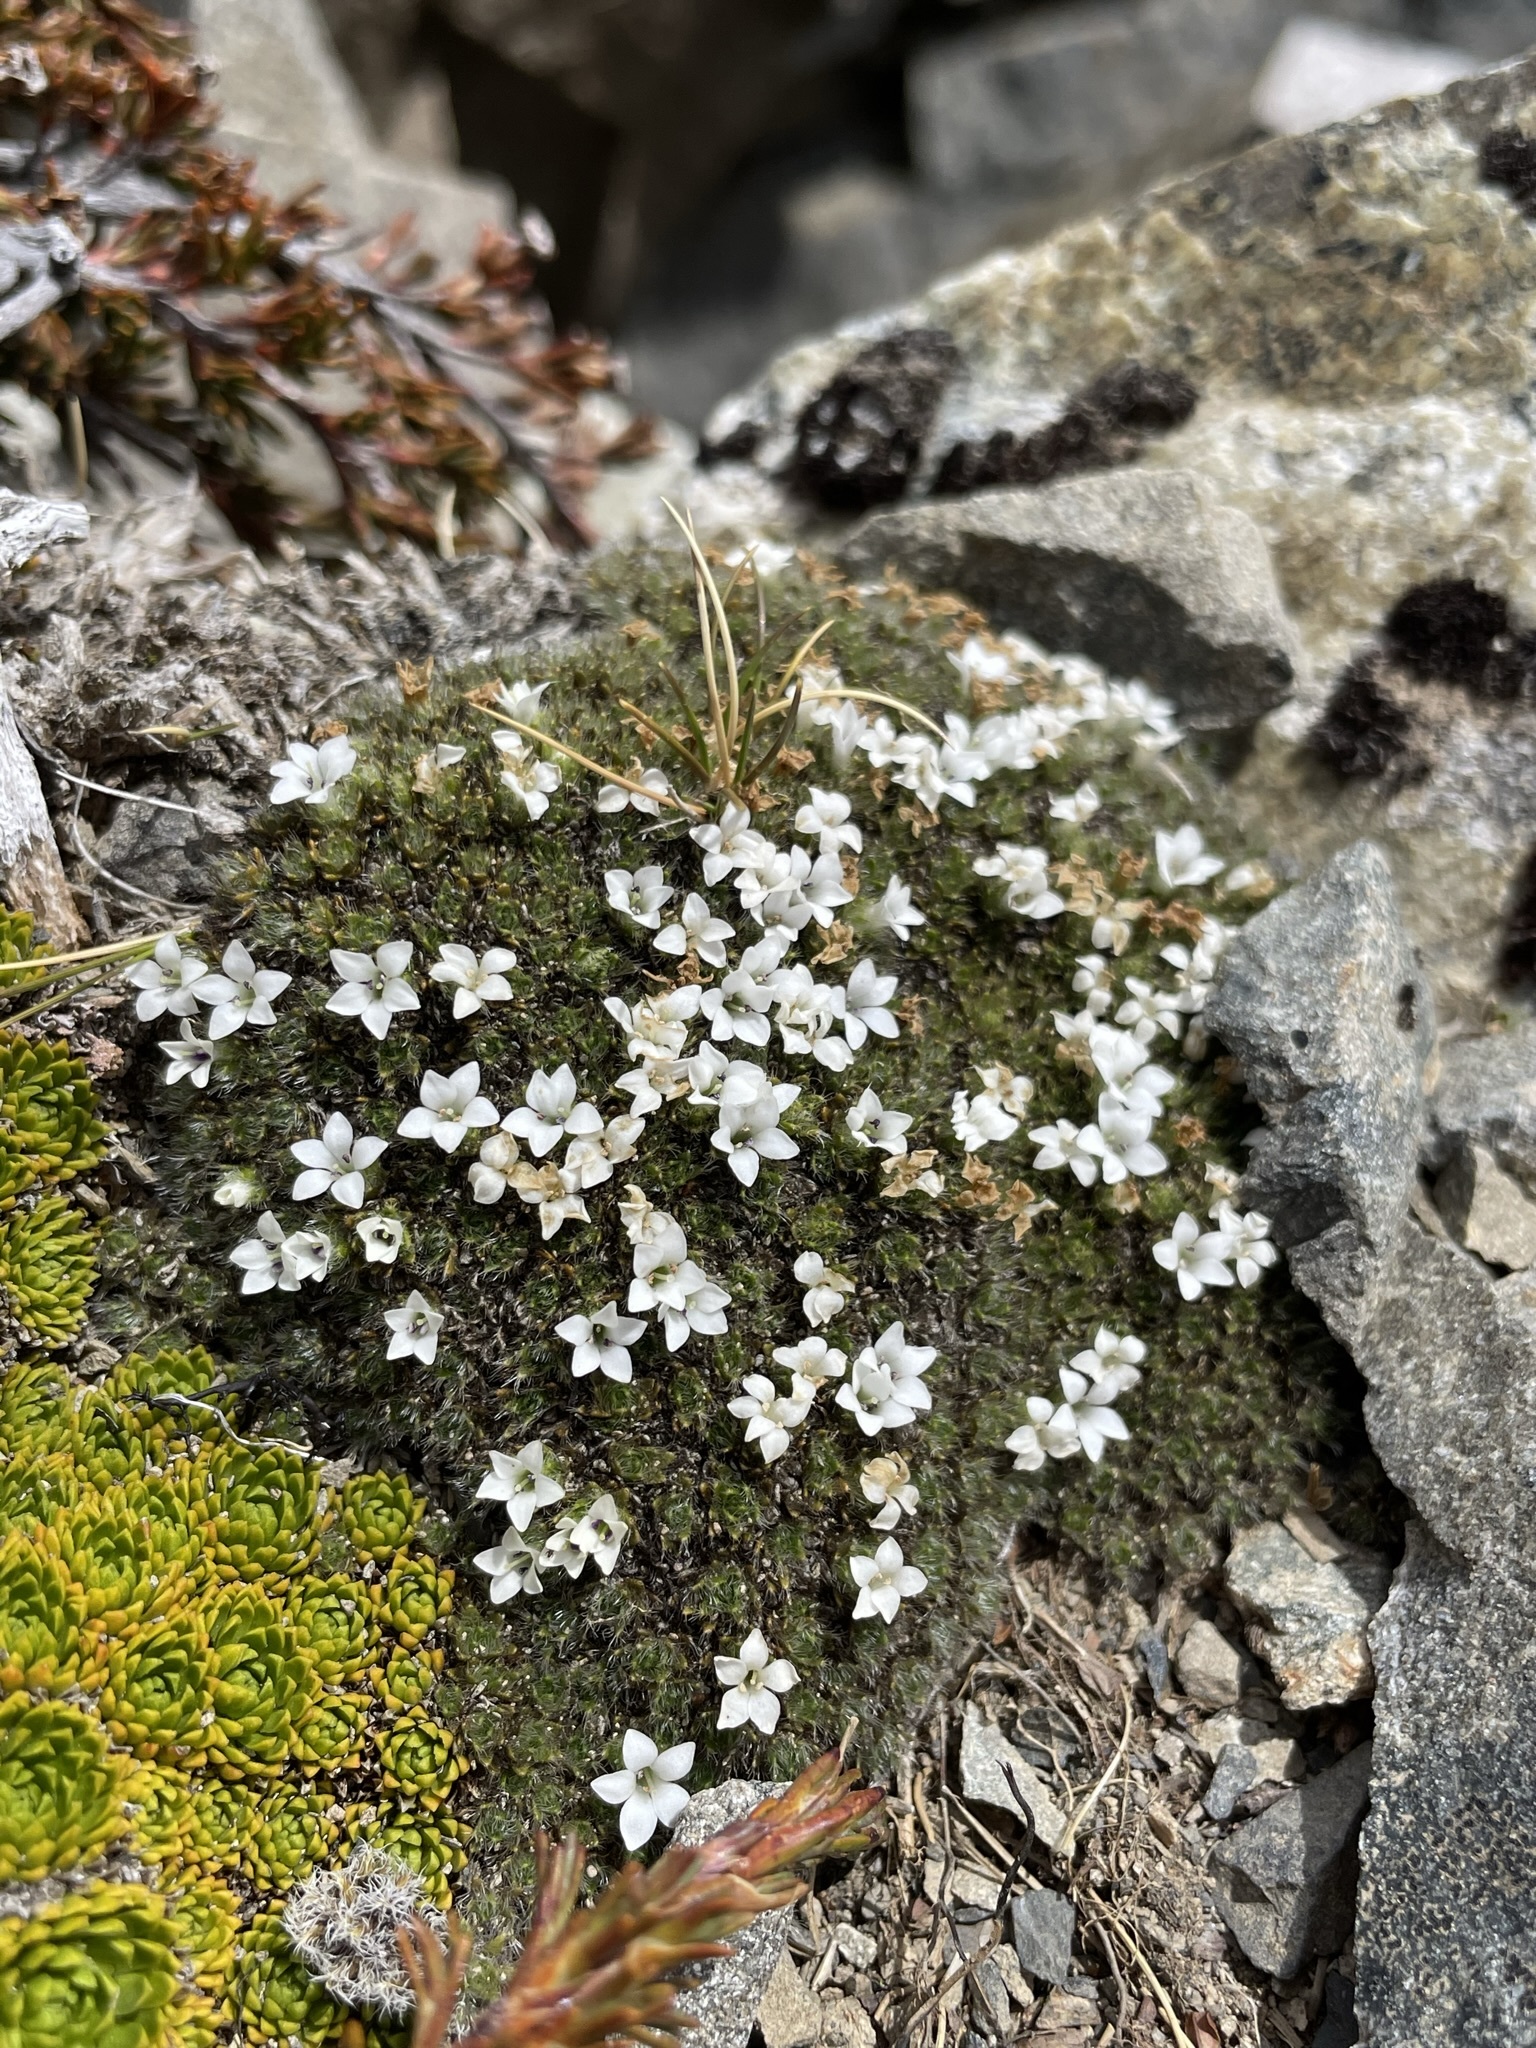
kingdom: Plantae
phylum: Tracheophyta
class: Magnoliopsida
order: Lamiales
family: Plantaginaceae
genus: Veronica
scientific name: Veronica pulvinaris
